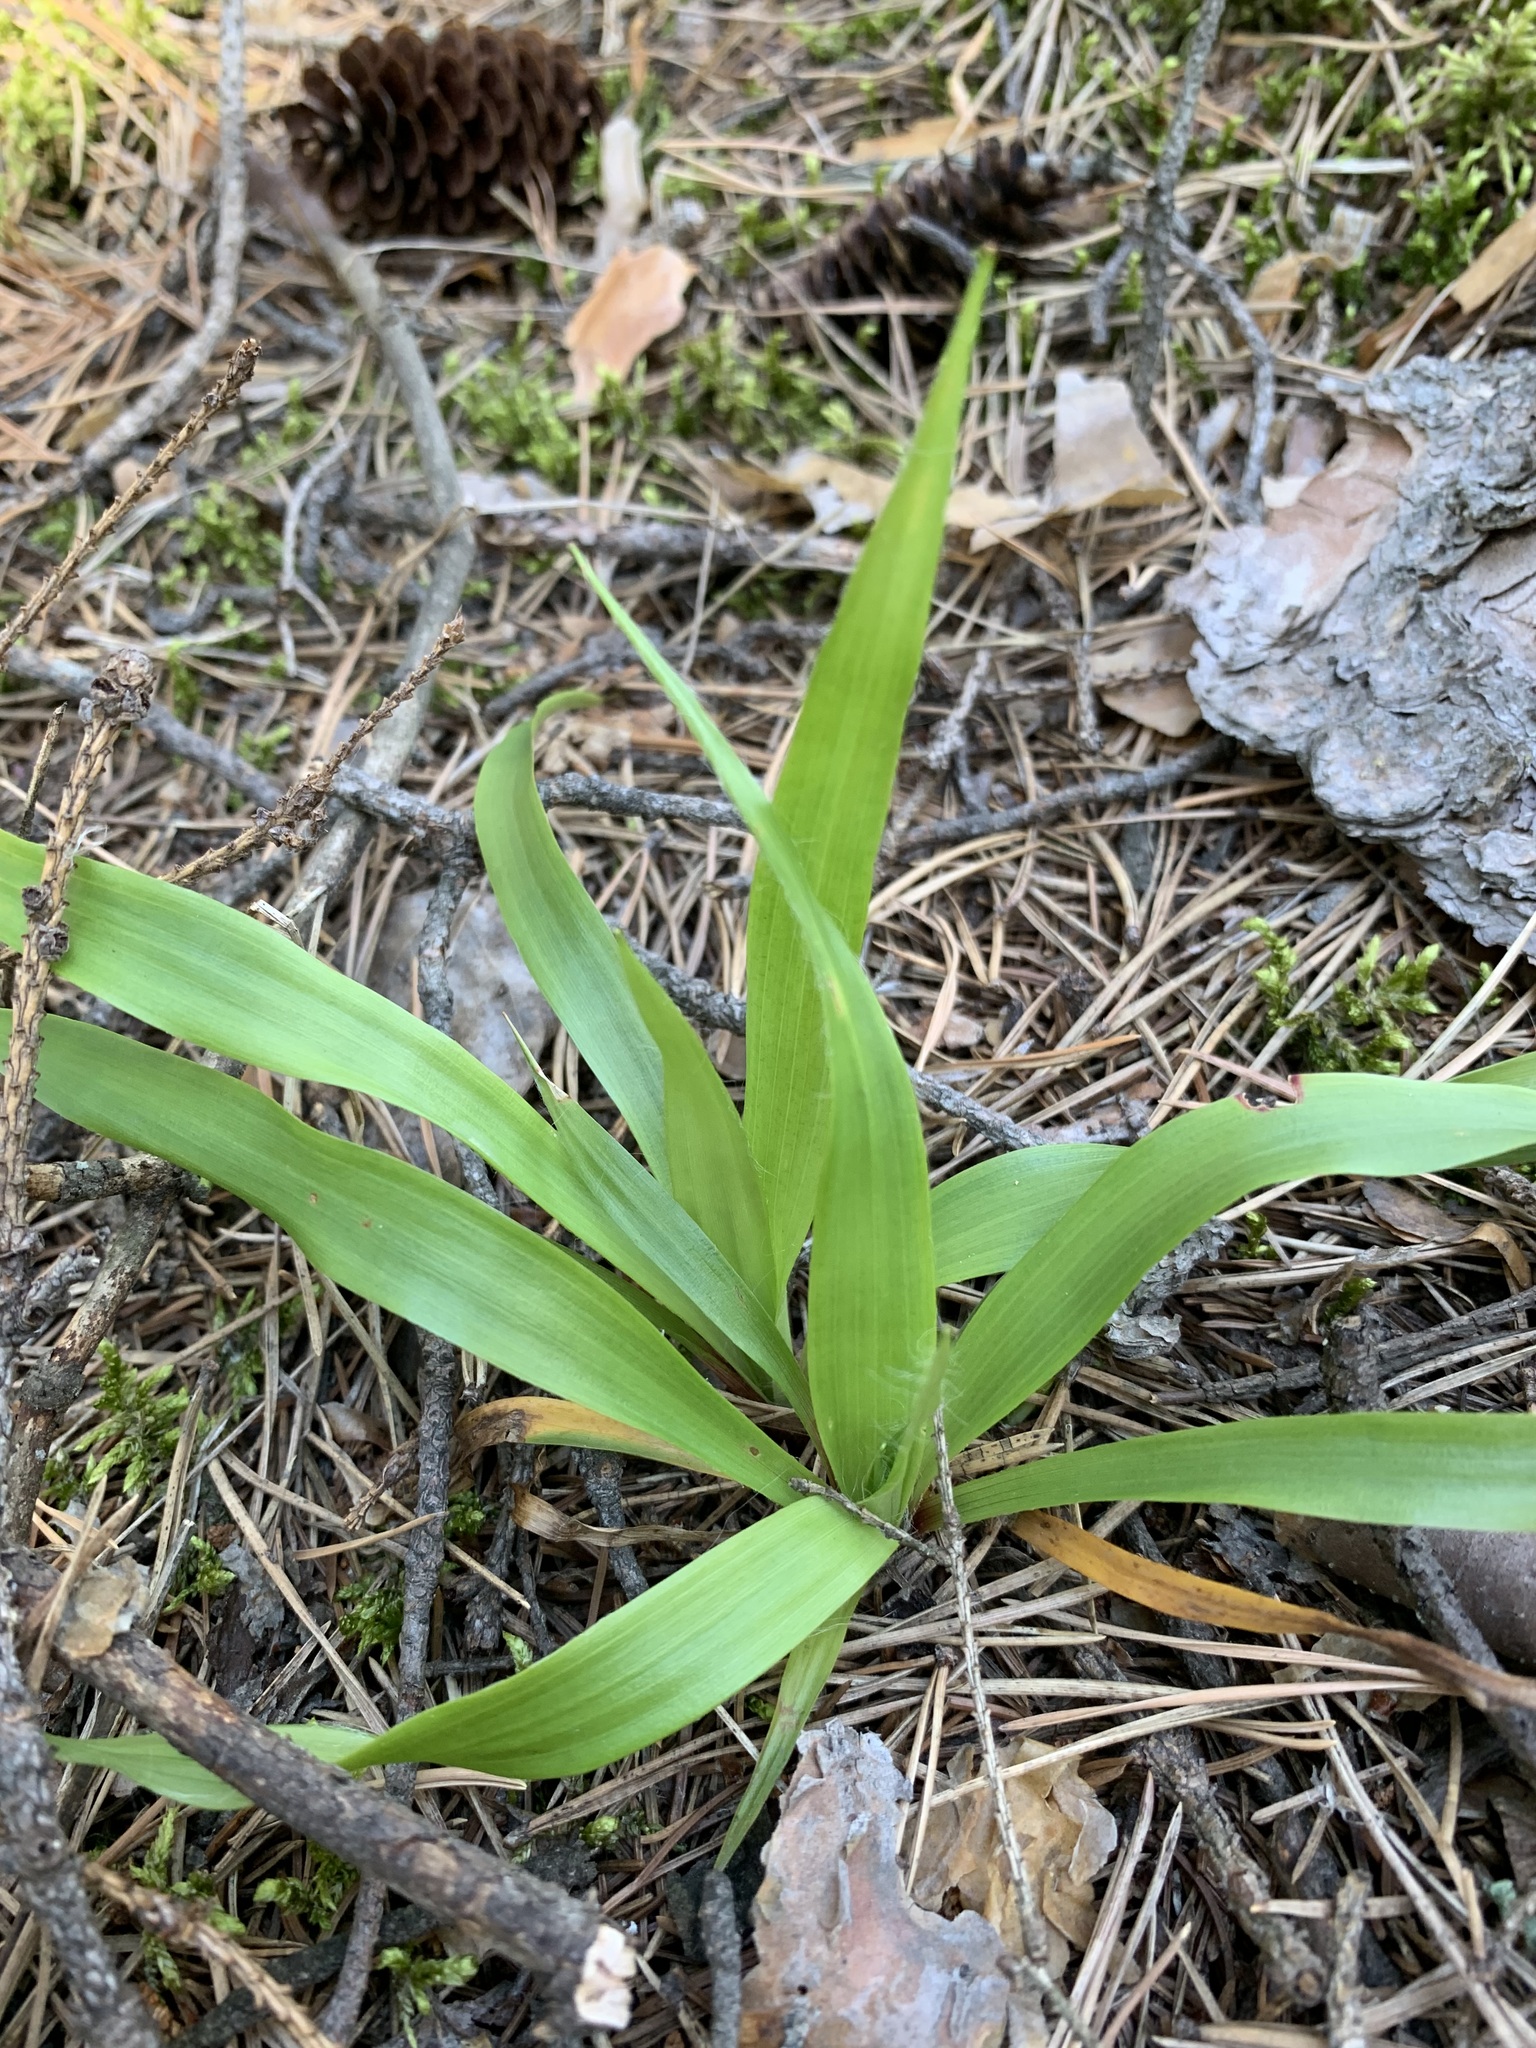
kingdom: Plantae
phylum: Tracheophyta
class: Liliopsida
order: Poales
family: Juncaceae
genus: Luzula
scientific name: Luzula pilosa
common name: Hairy wood-rush
